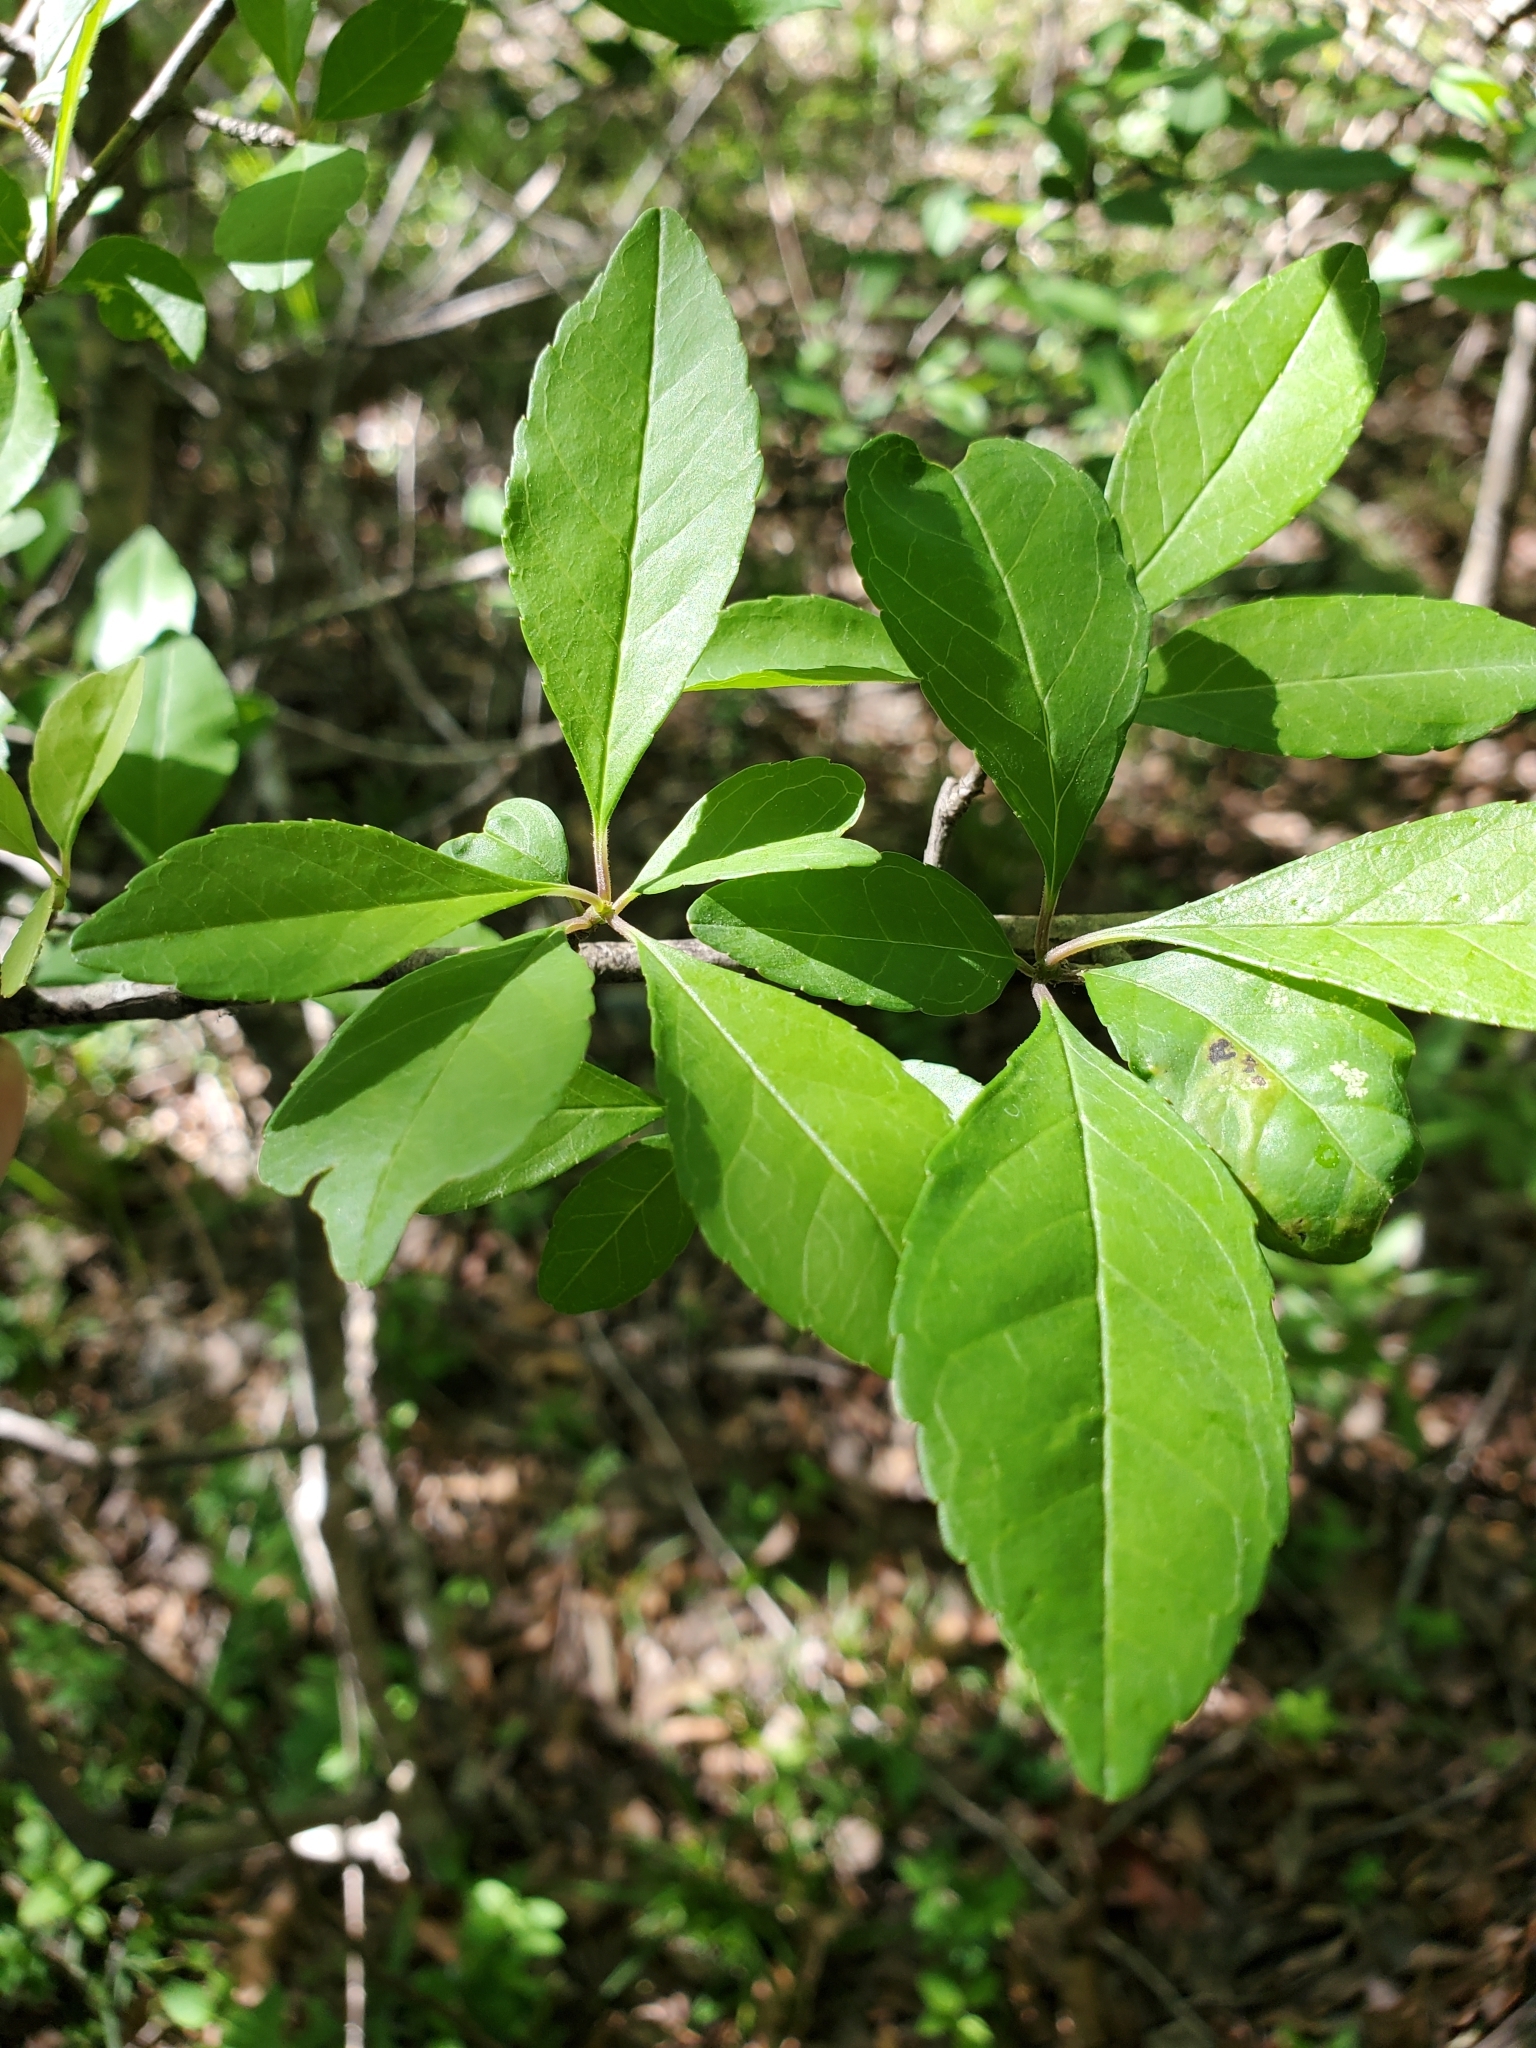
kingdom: Plantae
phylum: Tracheophyta
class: Magnoliopsida
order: Aquifoliales
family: Aquifoliaceae
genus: Ilex
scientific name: Ilex decidua
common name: Possum-haw
